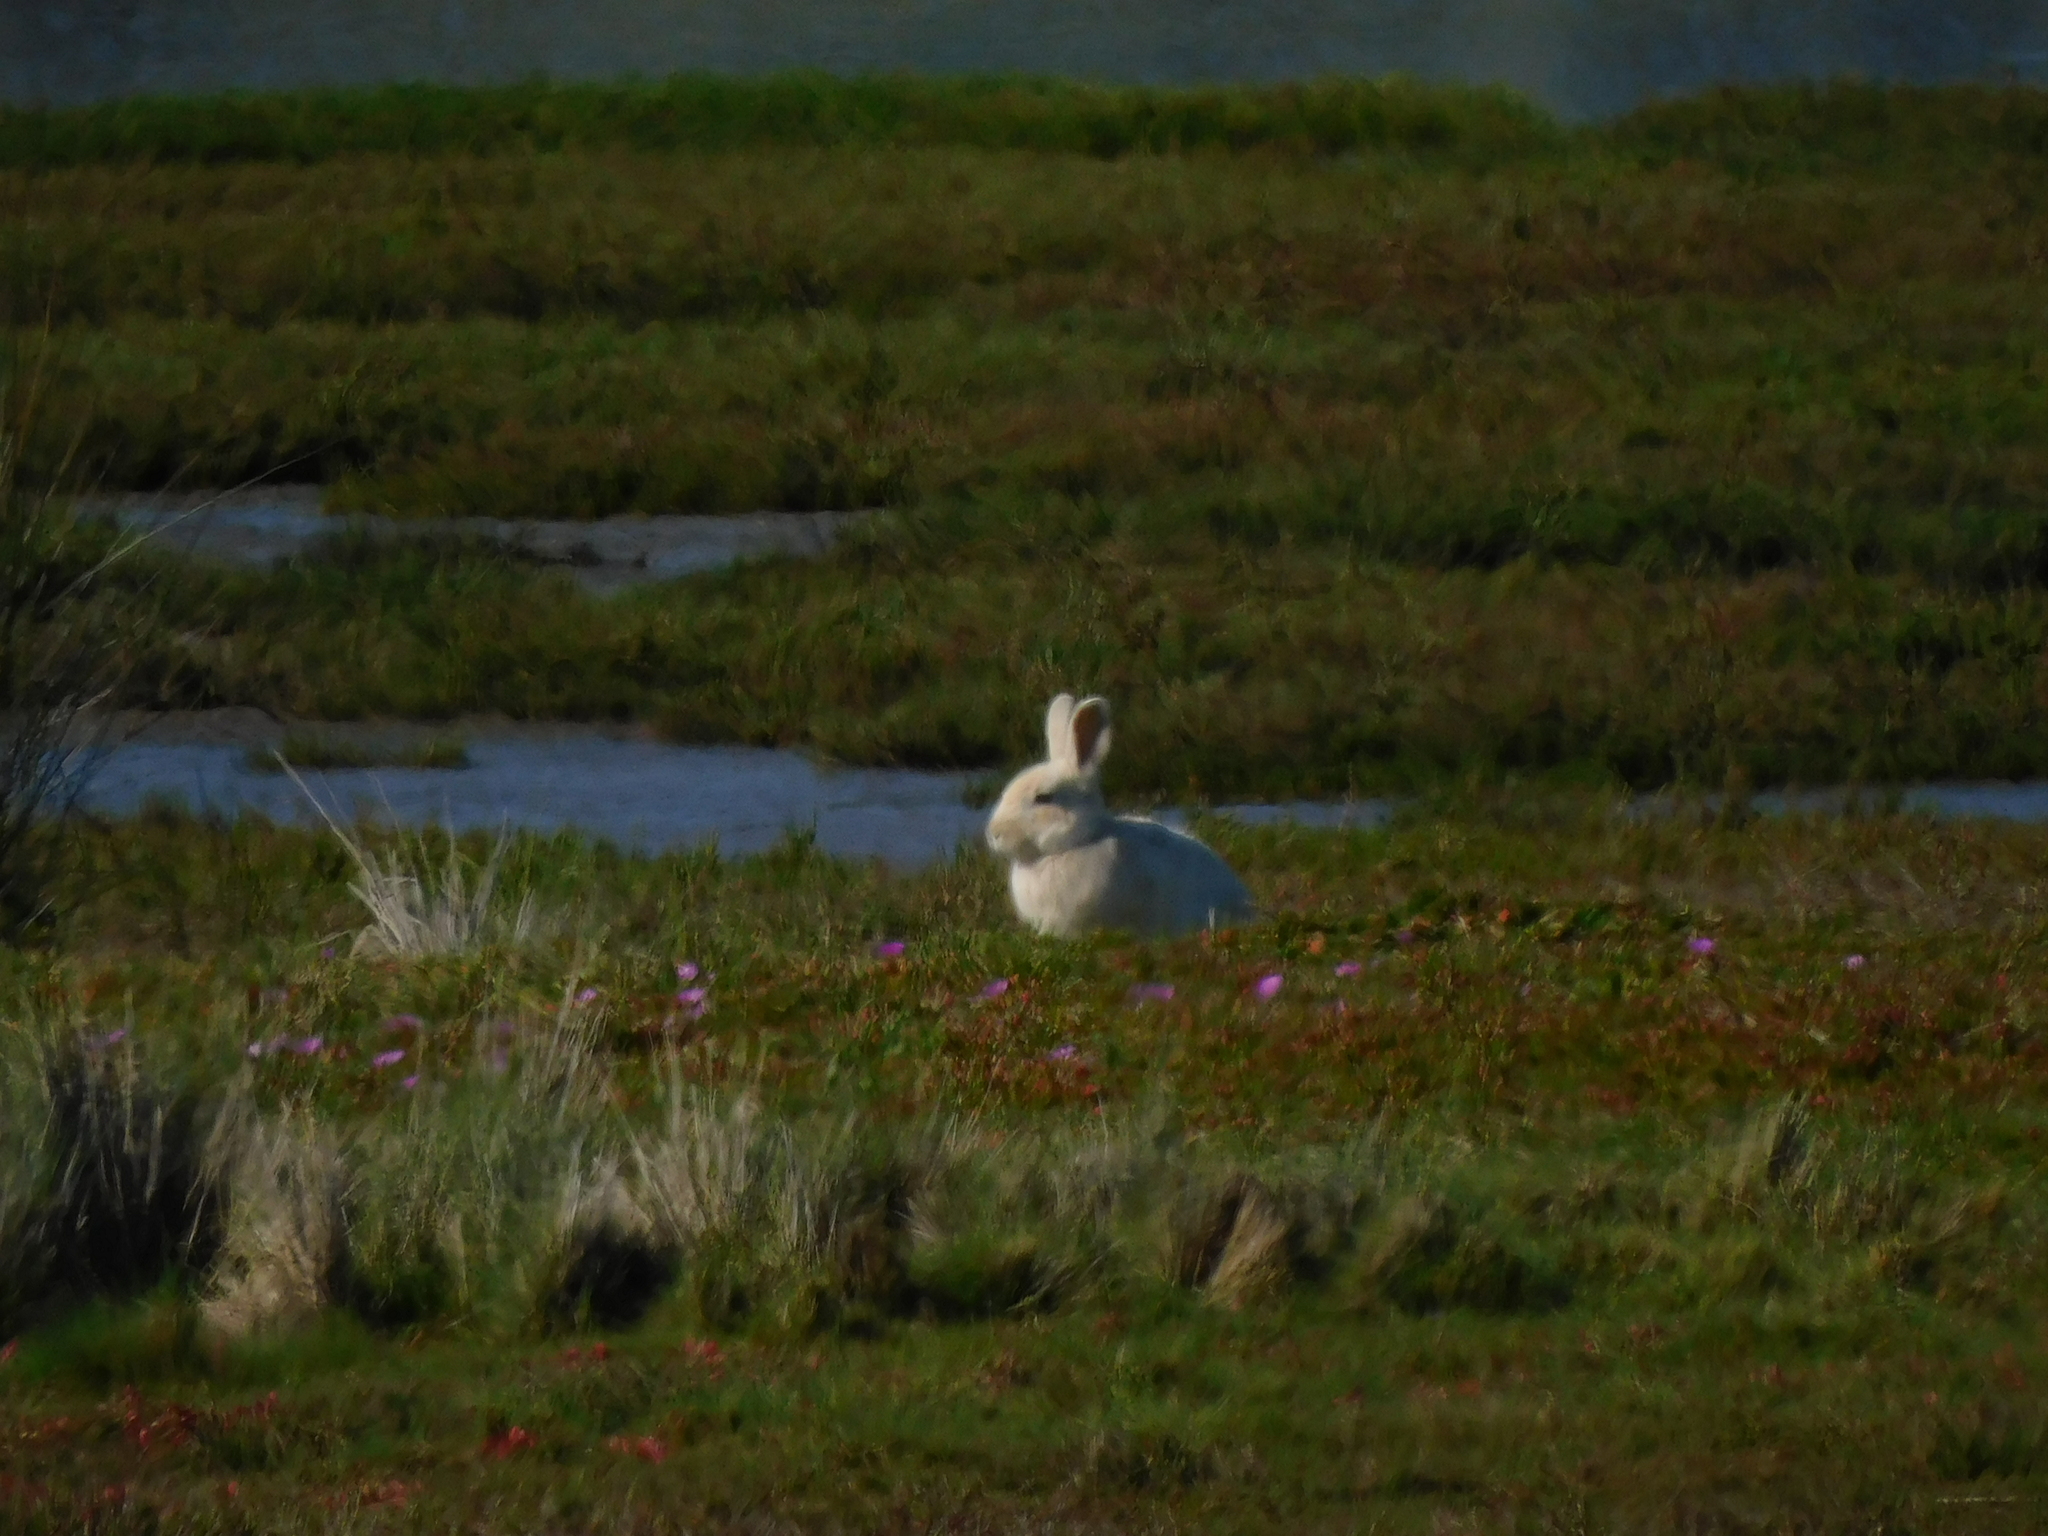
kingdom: Animalia
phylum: Chordata
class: Mammalia
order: Lagomorpha
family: Leporidae
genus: Oryctolagus
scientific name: Oryctolagus cuniculus
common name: European rabbit
